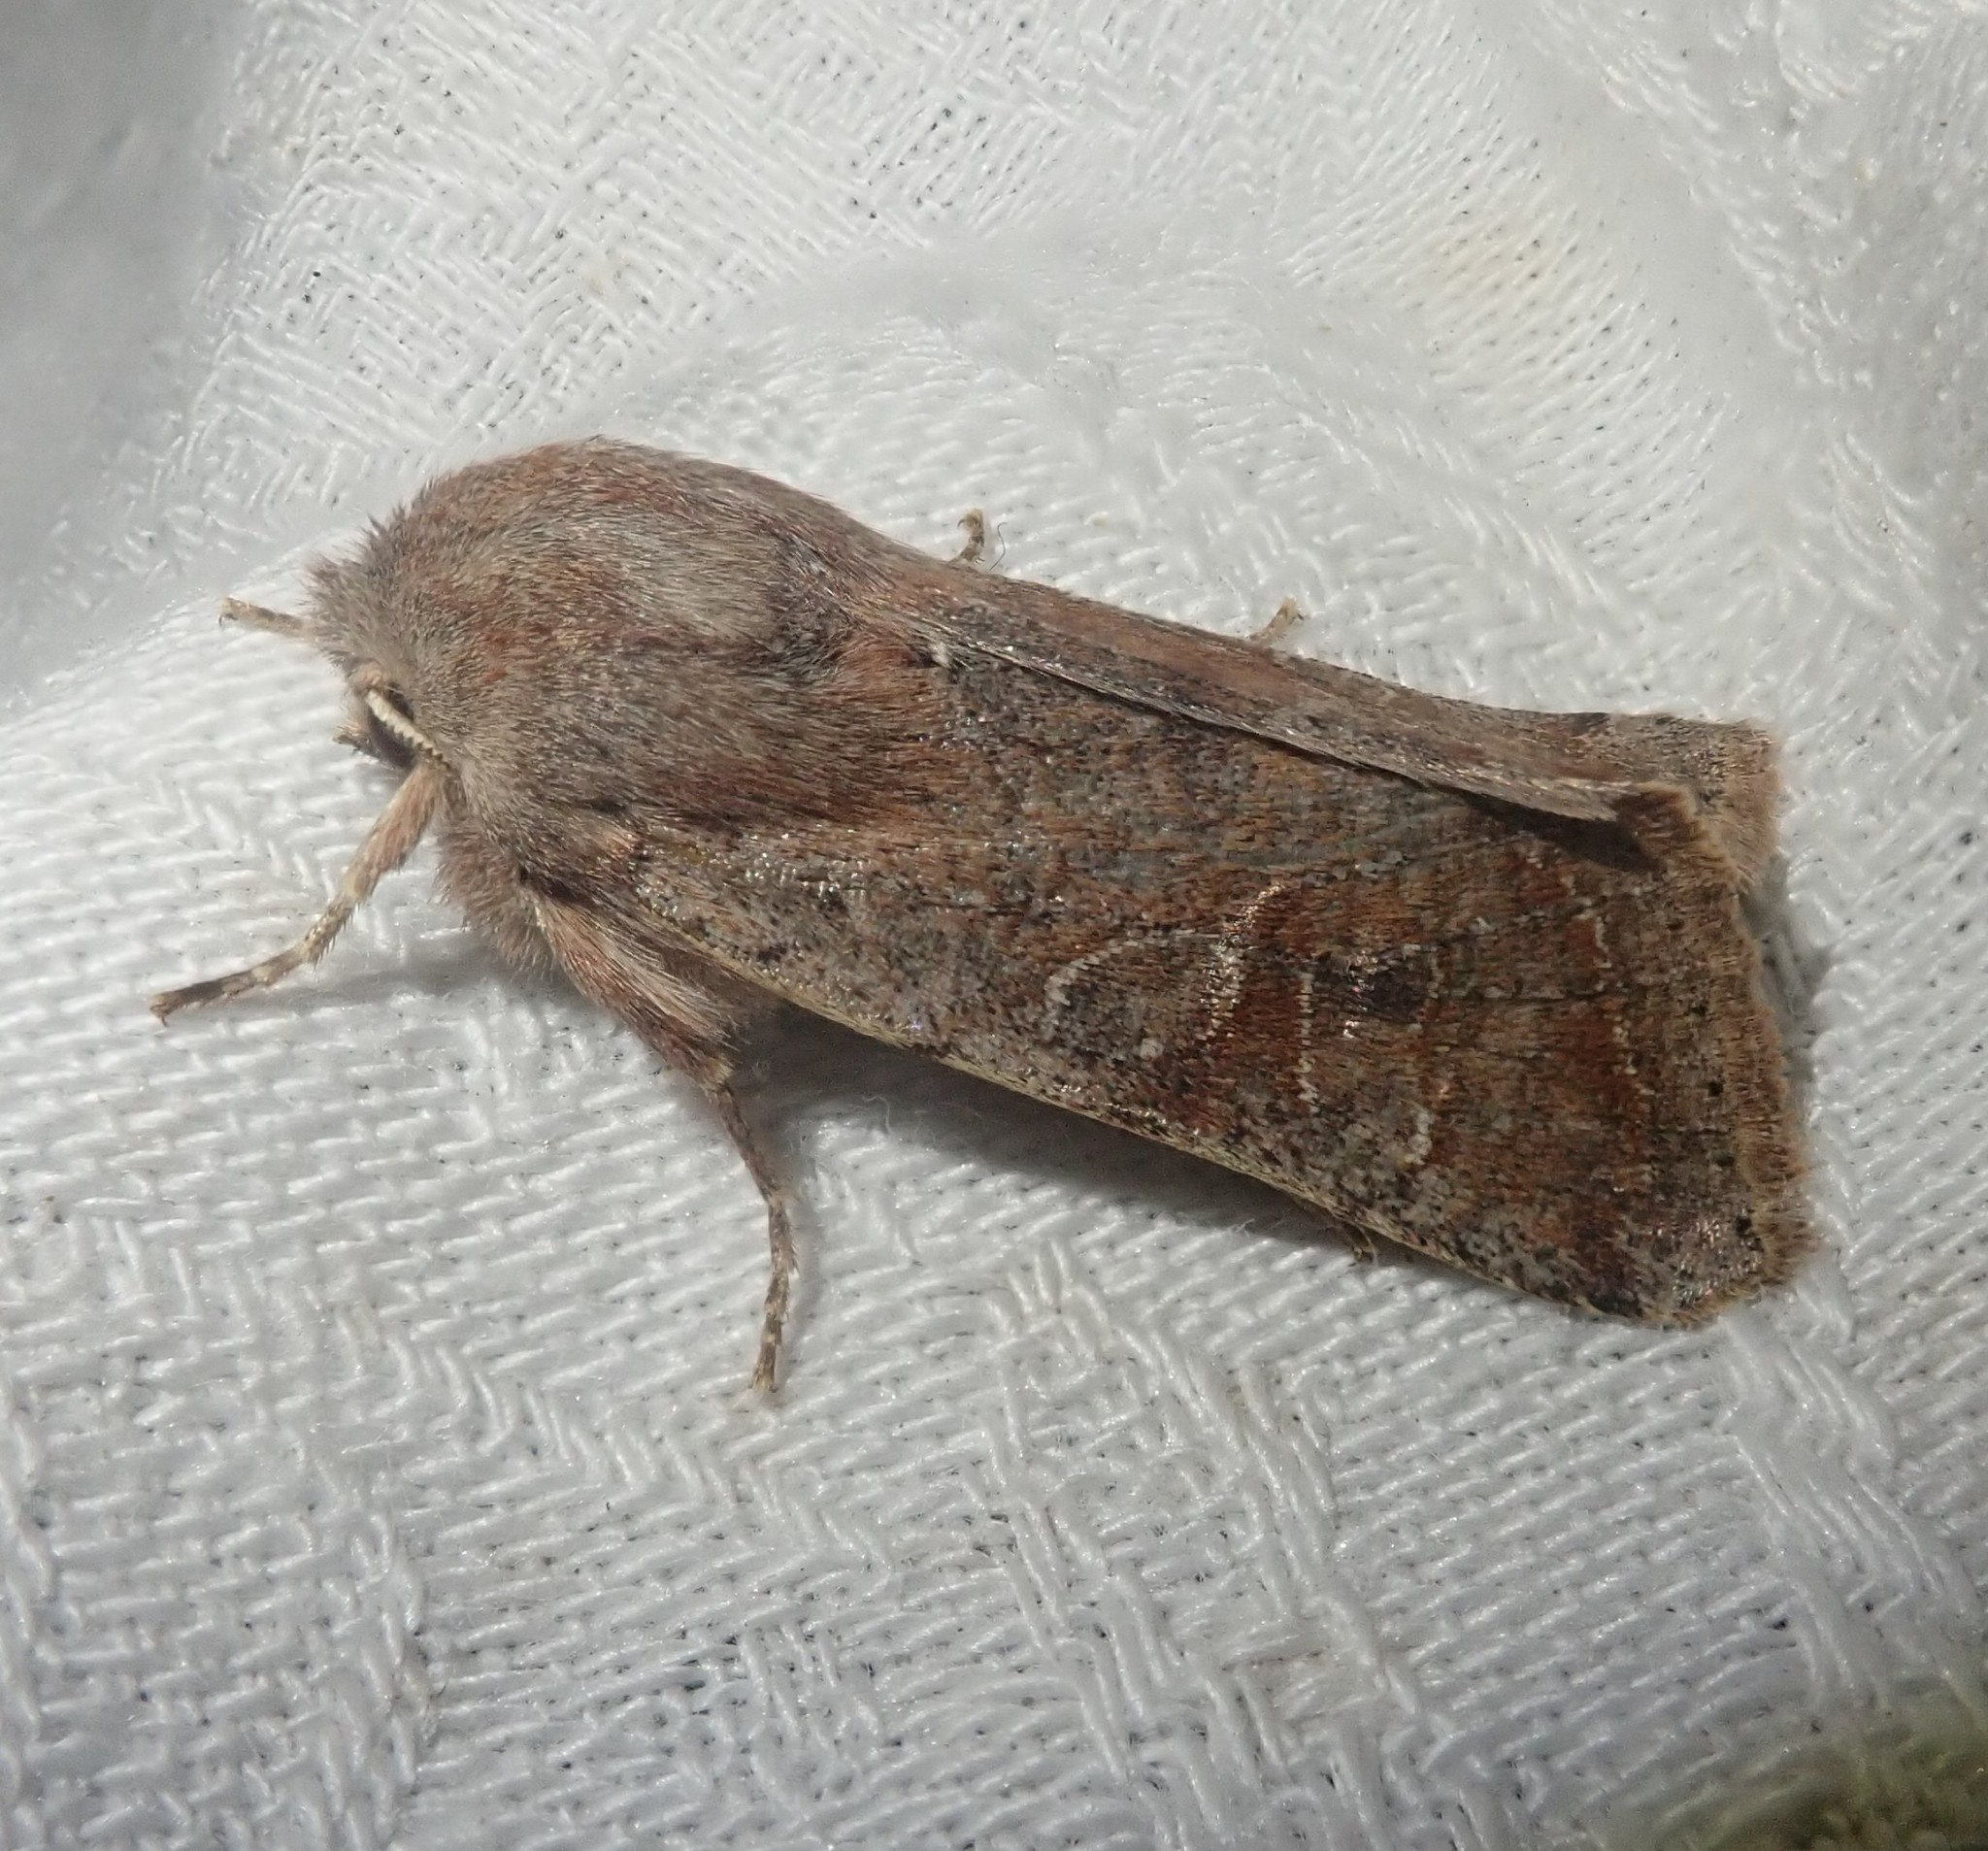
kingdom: Animalia
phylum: Arthropoda
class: Insecta
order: Lepidoptera
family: Noctuidae
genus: Orthosia
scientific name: Orthosia incerta
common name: Clouded drab
